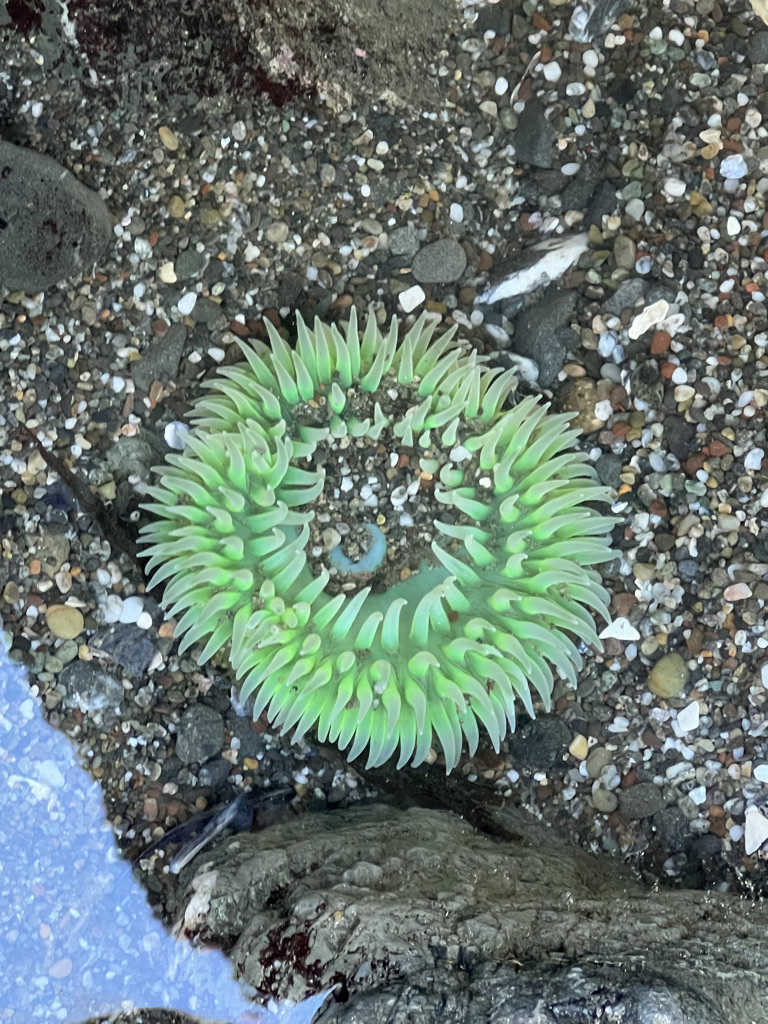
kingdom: Animalia
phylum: Cnidaria
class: Anthozoa
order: Actiniaria
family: Actiniidae
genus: Anthopleura
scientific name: Anthopleura xanthogrammica
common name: Giant green anemone
